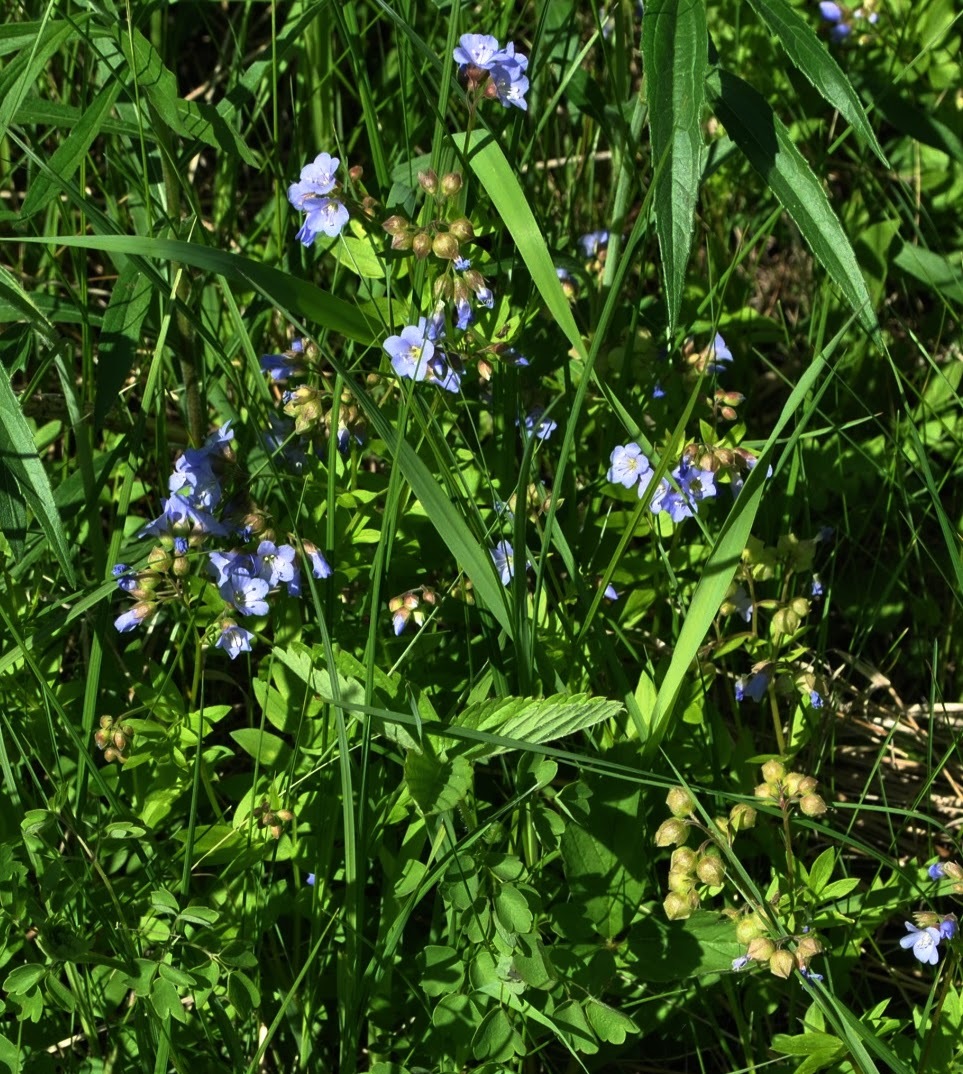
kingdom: Plantae
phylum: Tracheophyta
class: Magnoliopsida
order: Ericales
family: Polemoniaceae
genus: Polemonium
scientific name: Polemonium reptans
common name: Creeping jacob's-ladder
